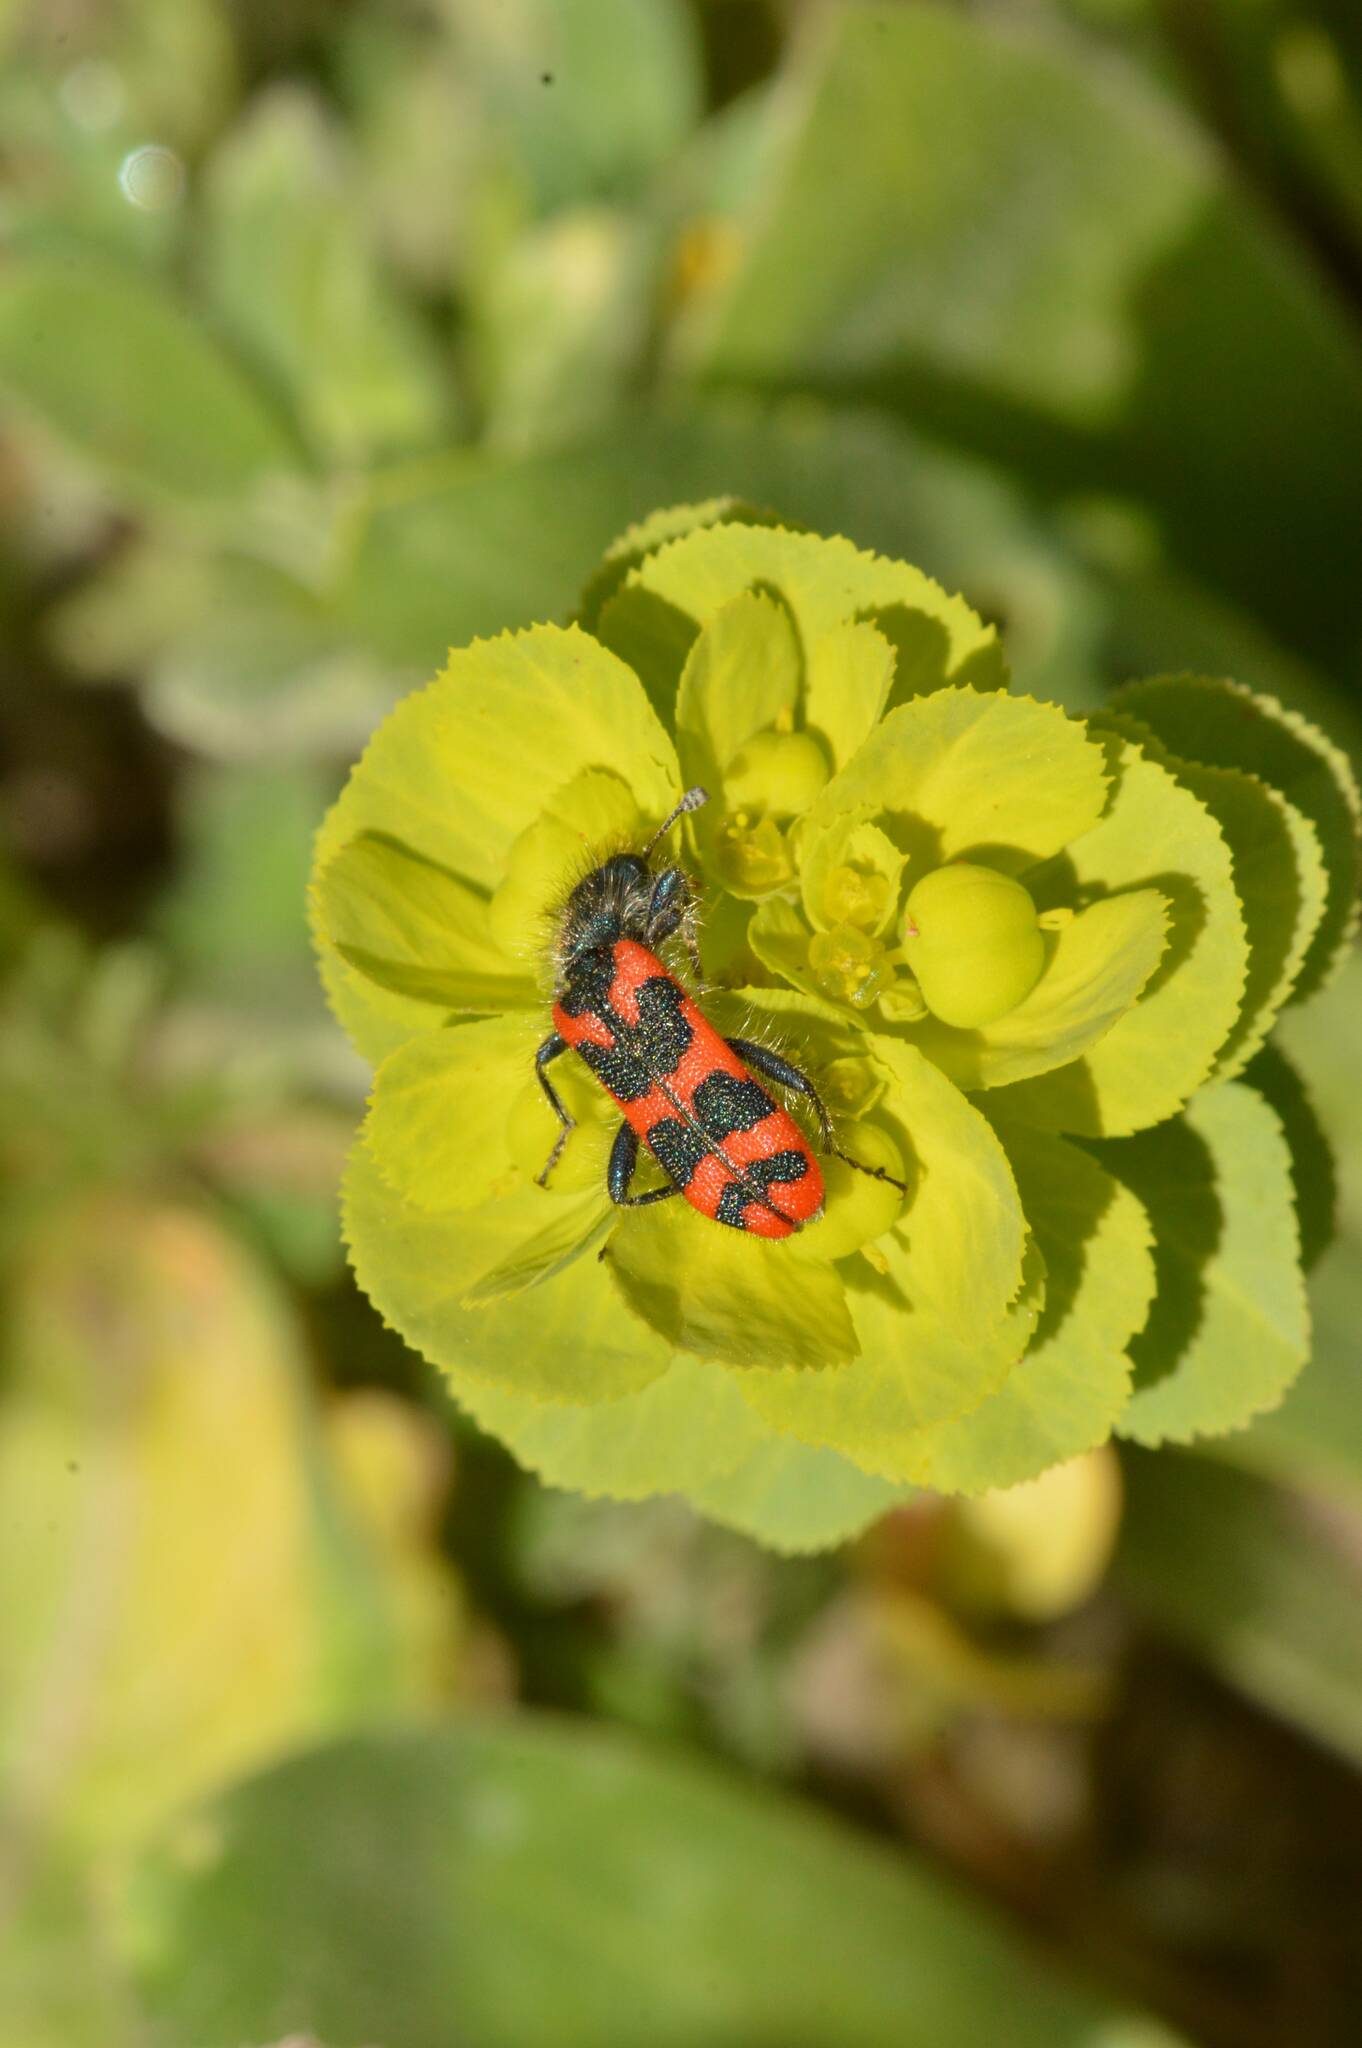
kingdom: Animalia
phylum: Arthropoda
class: Insecta
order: Coleoptera
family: Cleridae
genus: Trichodes
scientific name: Trichodes leucopsideus
